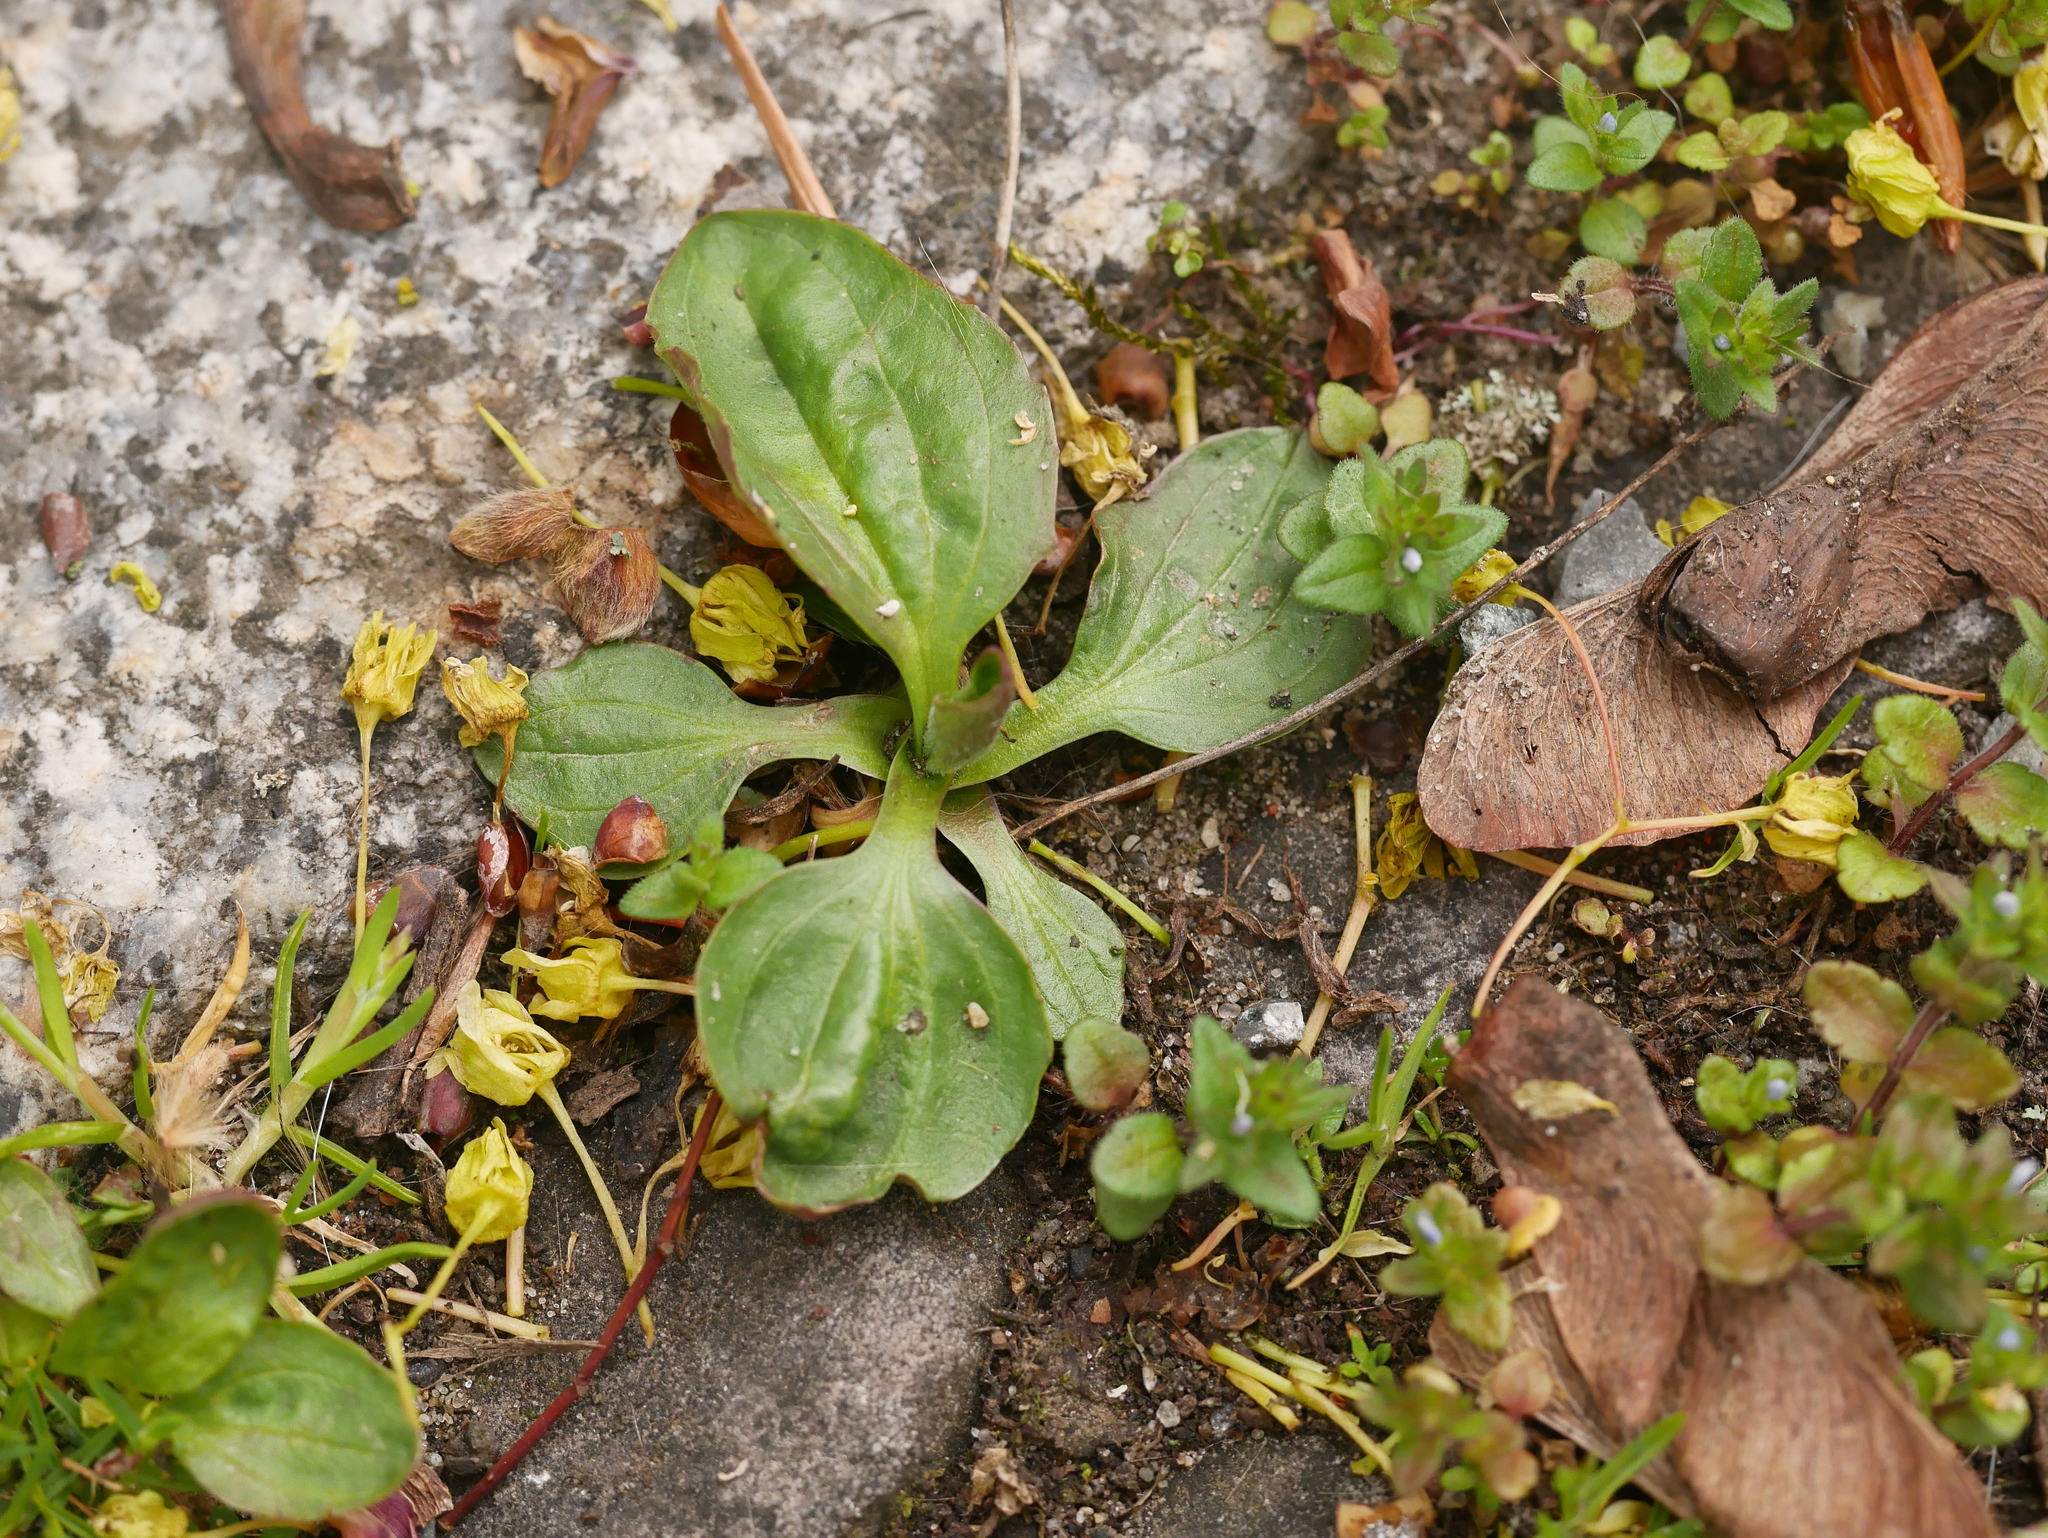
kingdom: Plantae
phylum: Tracheophyta
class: Magnoliopsida
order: Lamiales
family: Plantaginaceae
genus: Plantago
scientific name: Plantago major
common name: Common plantain
